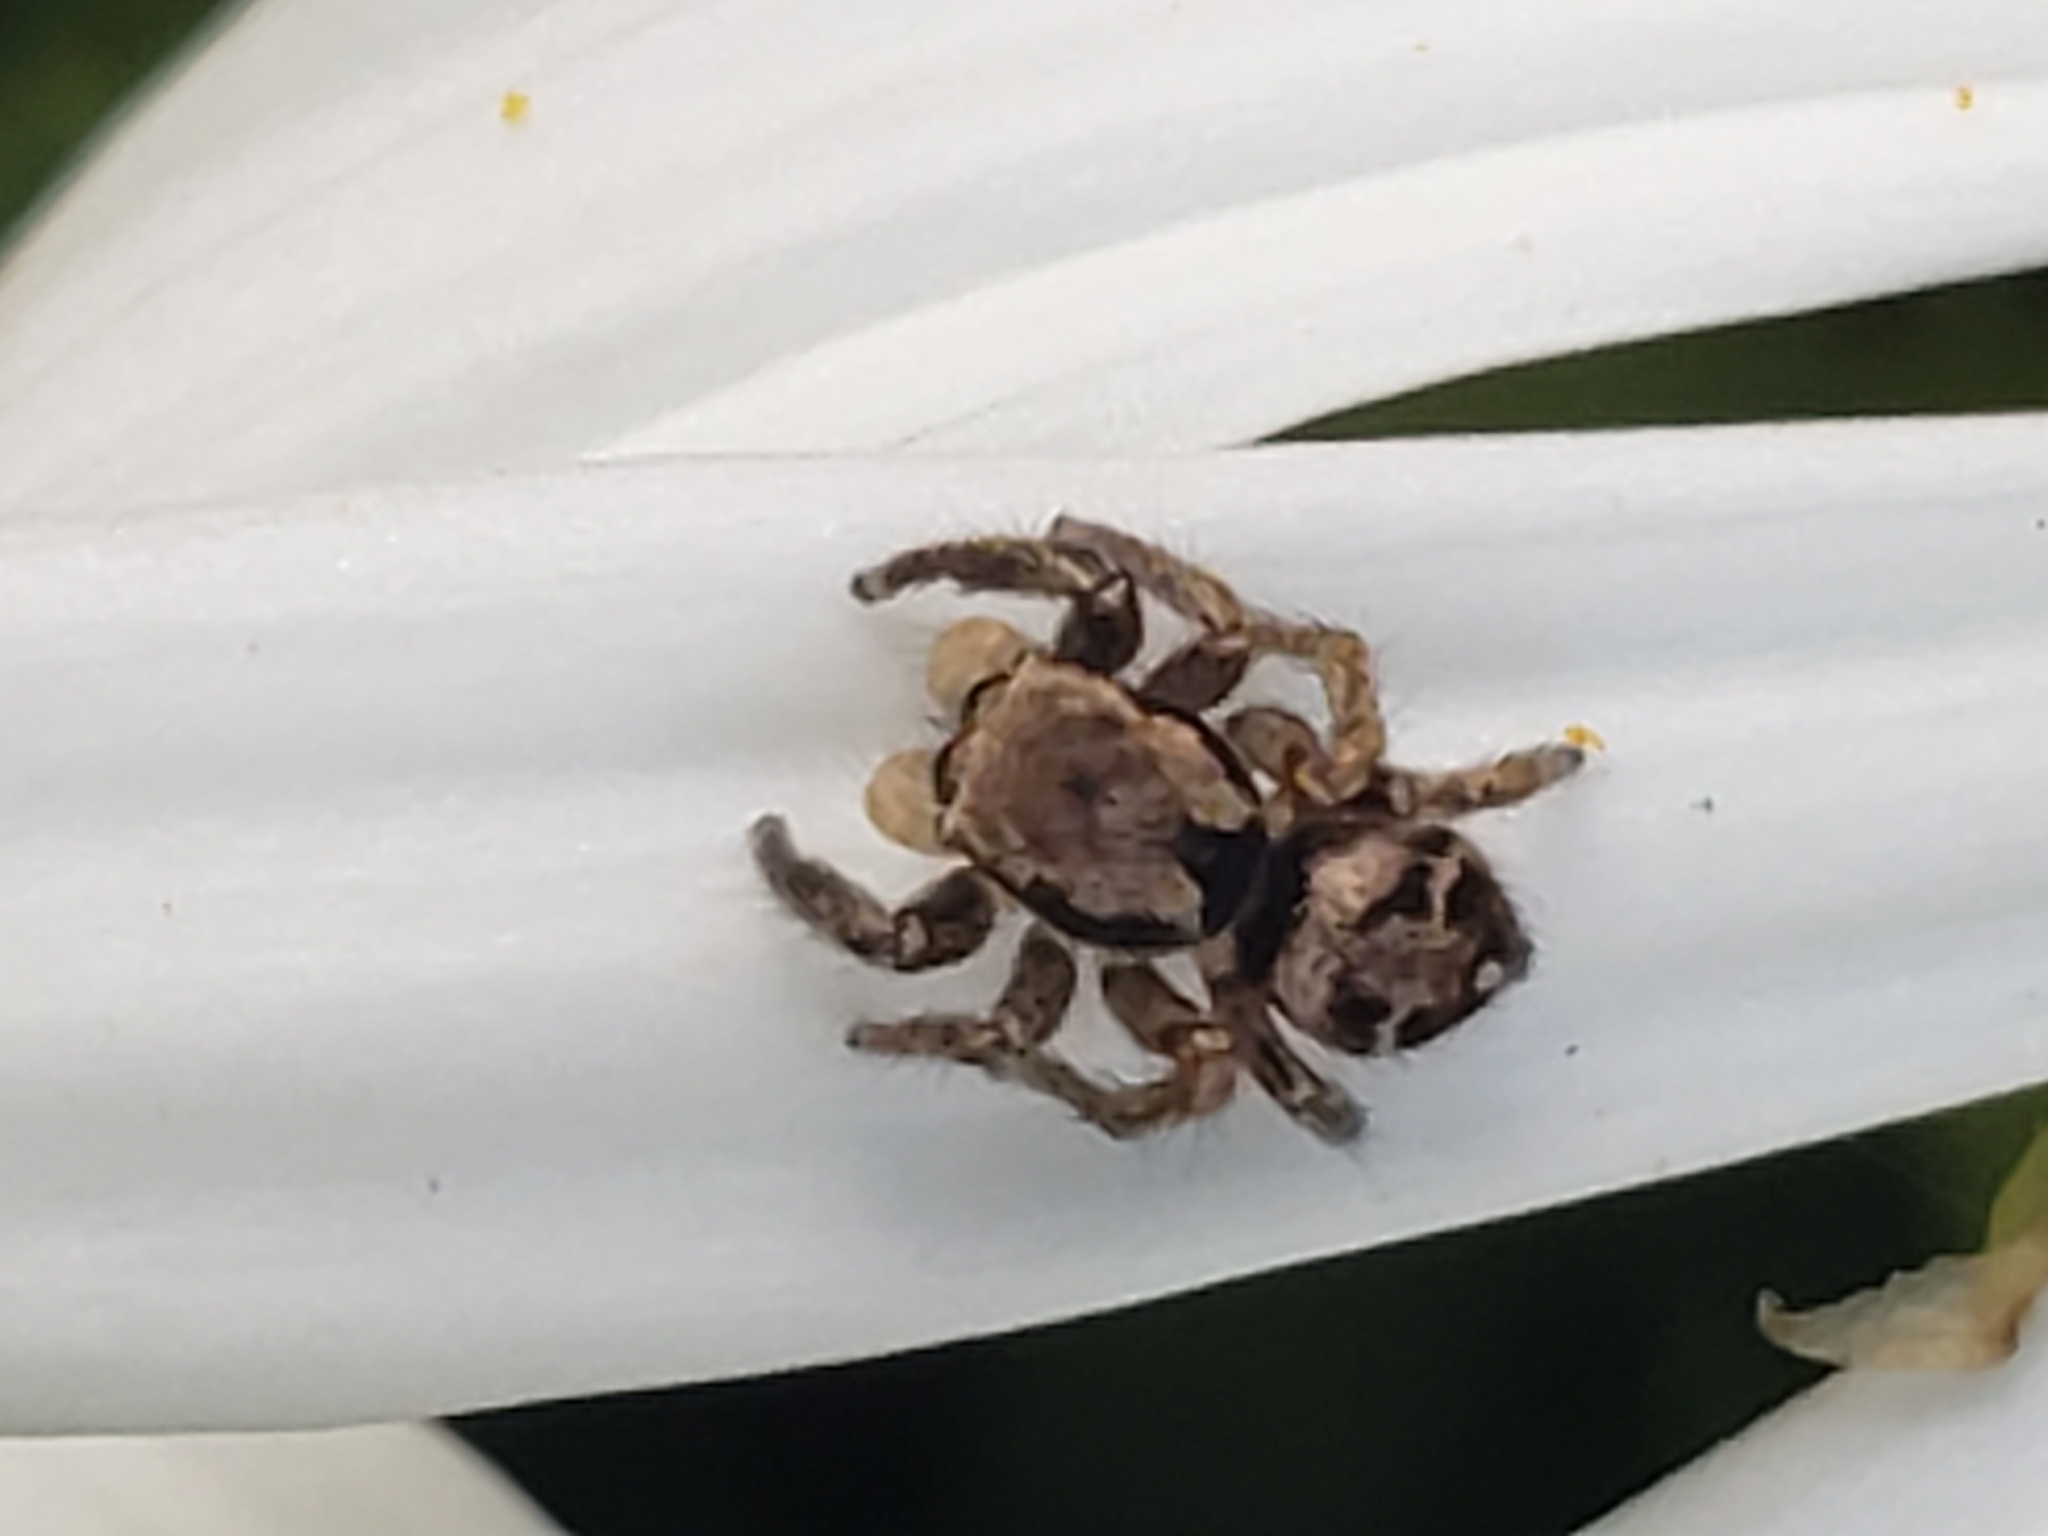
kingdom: Animalia
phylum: Arthropoda
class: Arachnida
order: Araneae
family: Salticidae
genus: Habronattus
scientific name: Habronattus coecatus
